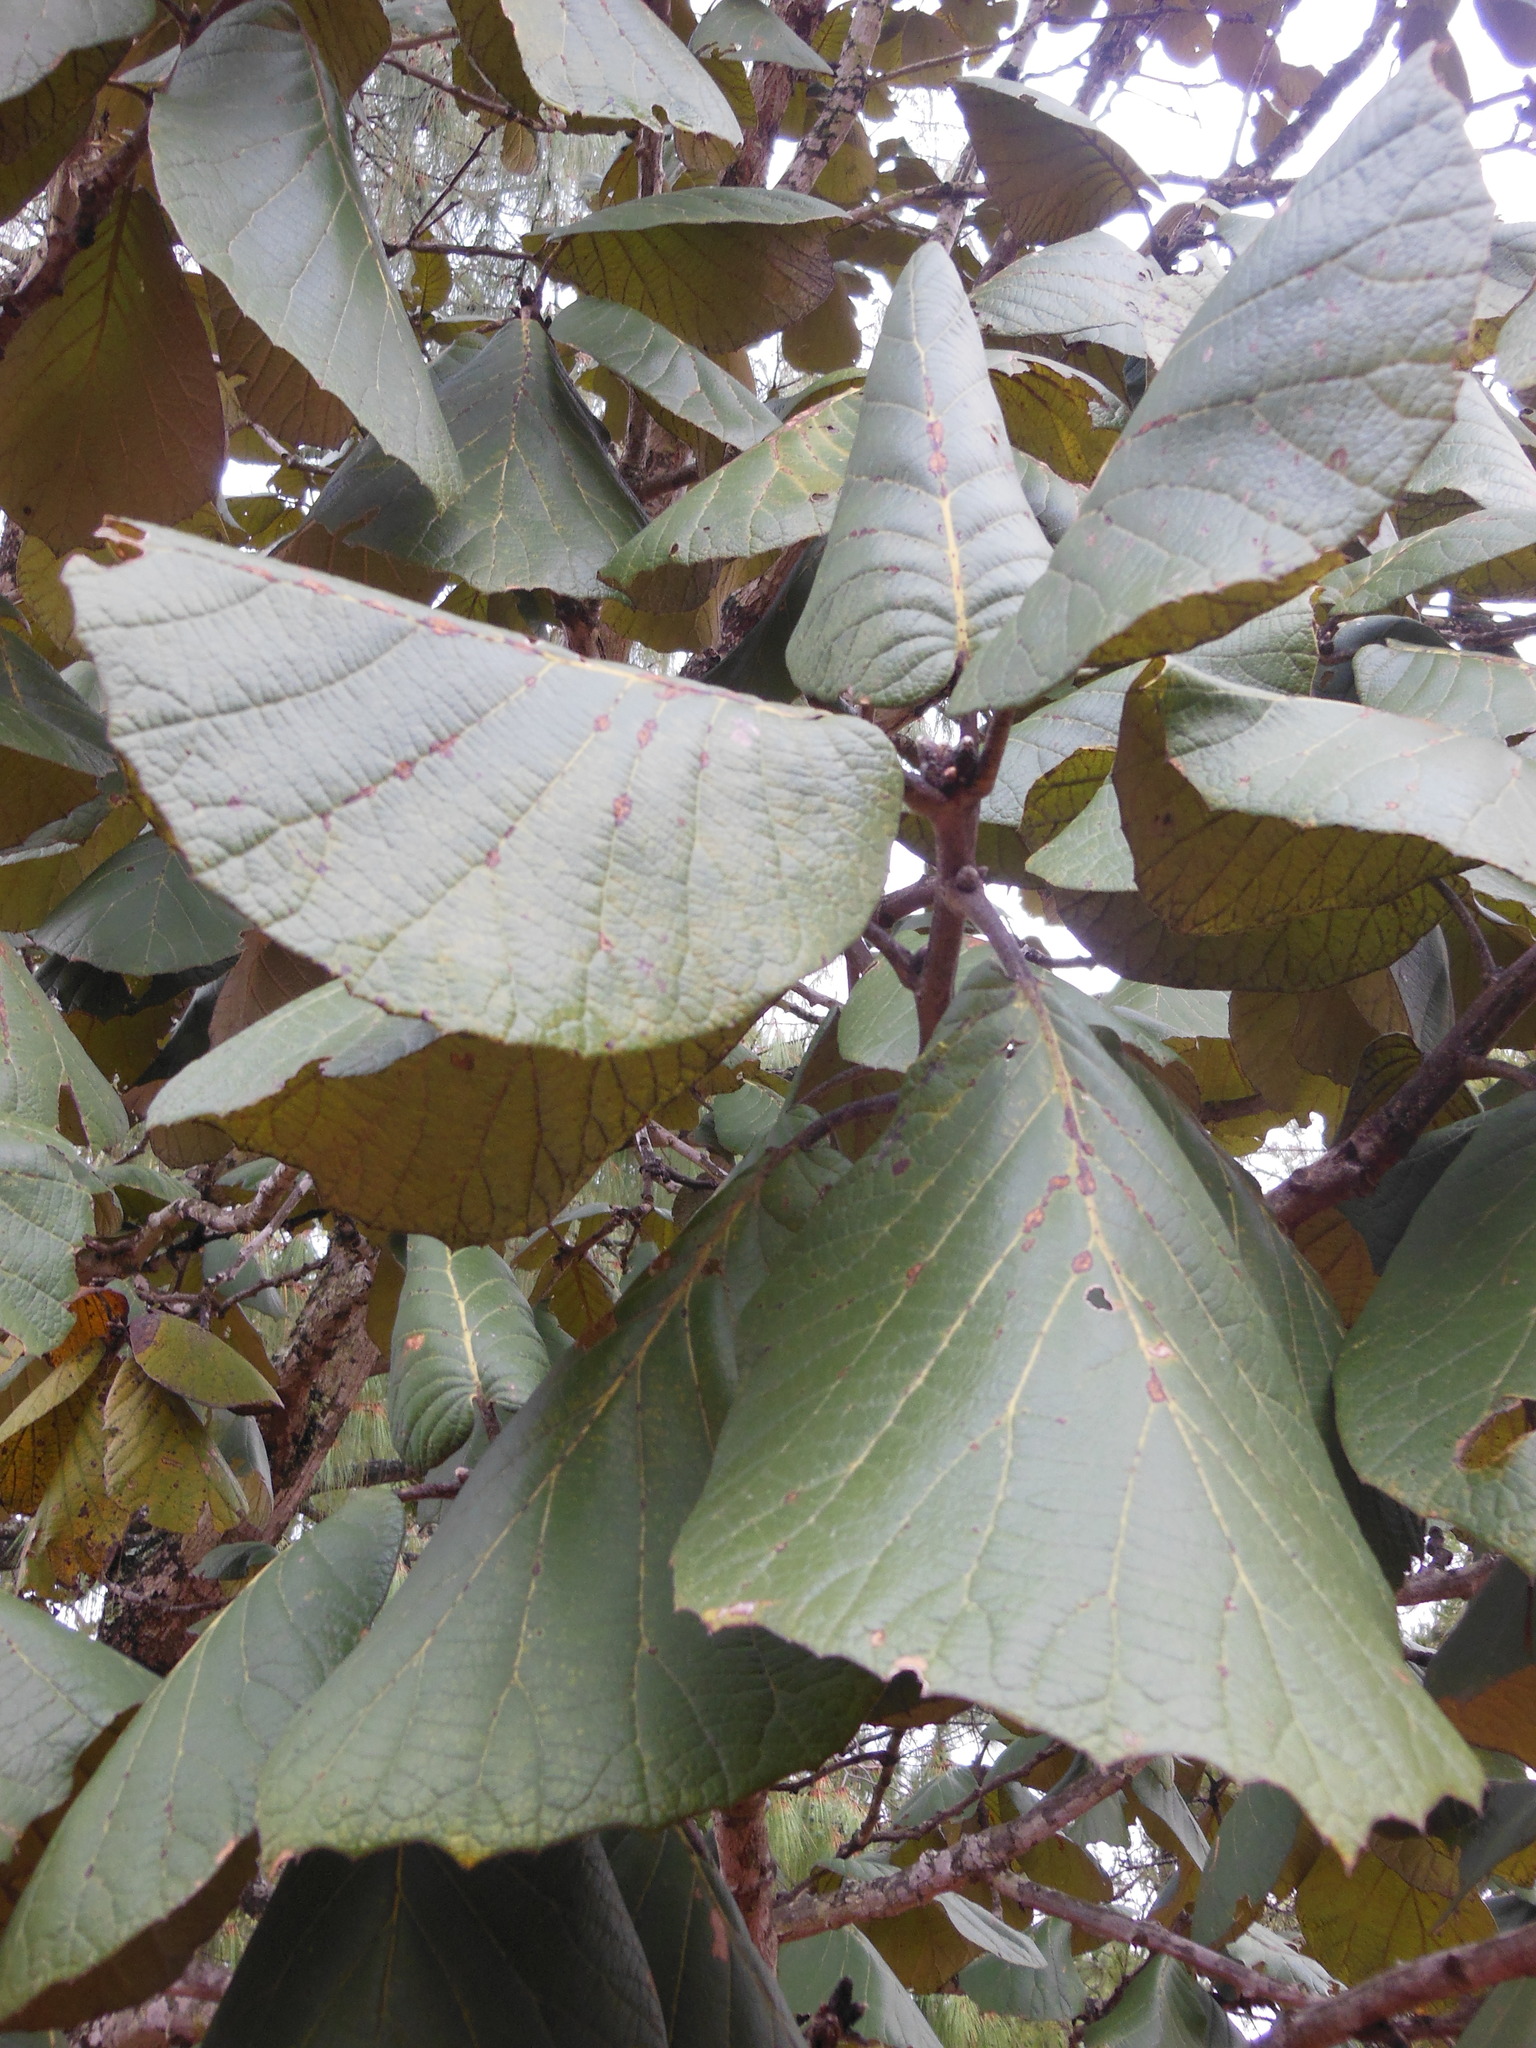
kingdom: Plantae
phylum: Tracheophyta
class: Magnoliopsida
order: Fagales
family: Fagaceae
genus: Quercus
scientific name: Quercus urbani
